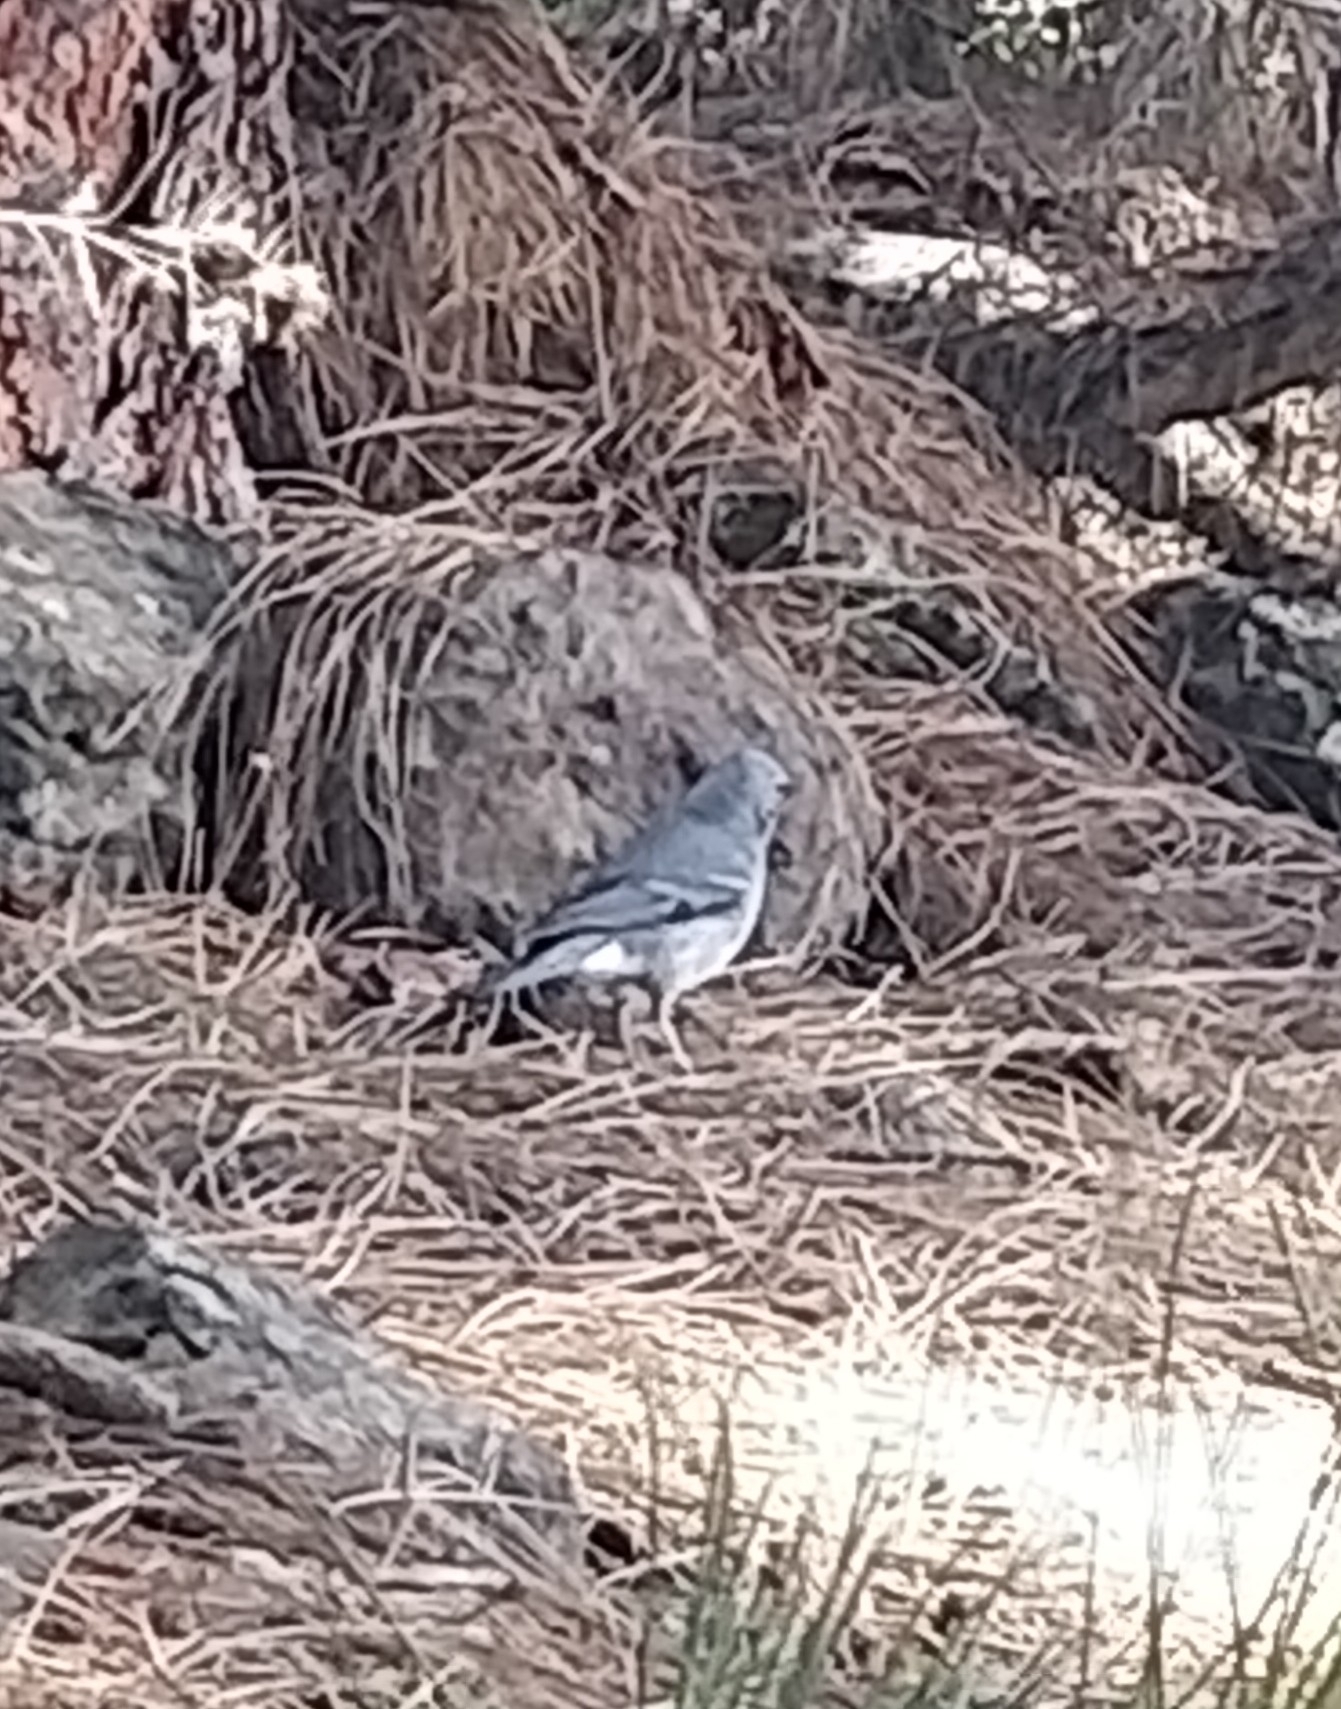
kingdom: Animalia
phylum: Chordata
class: Aves
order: Passeriformes
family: Fringillidae
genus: Fringilla
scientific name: Fringilla teydea
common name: Blue chaffinch
